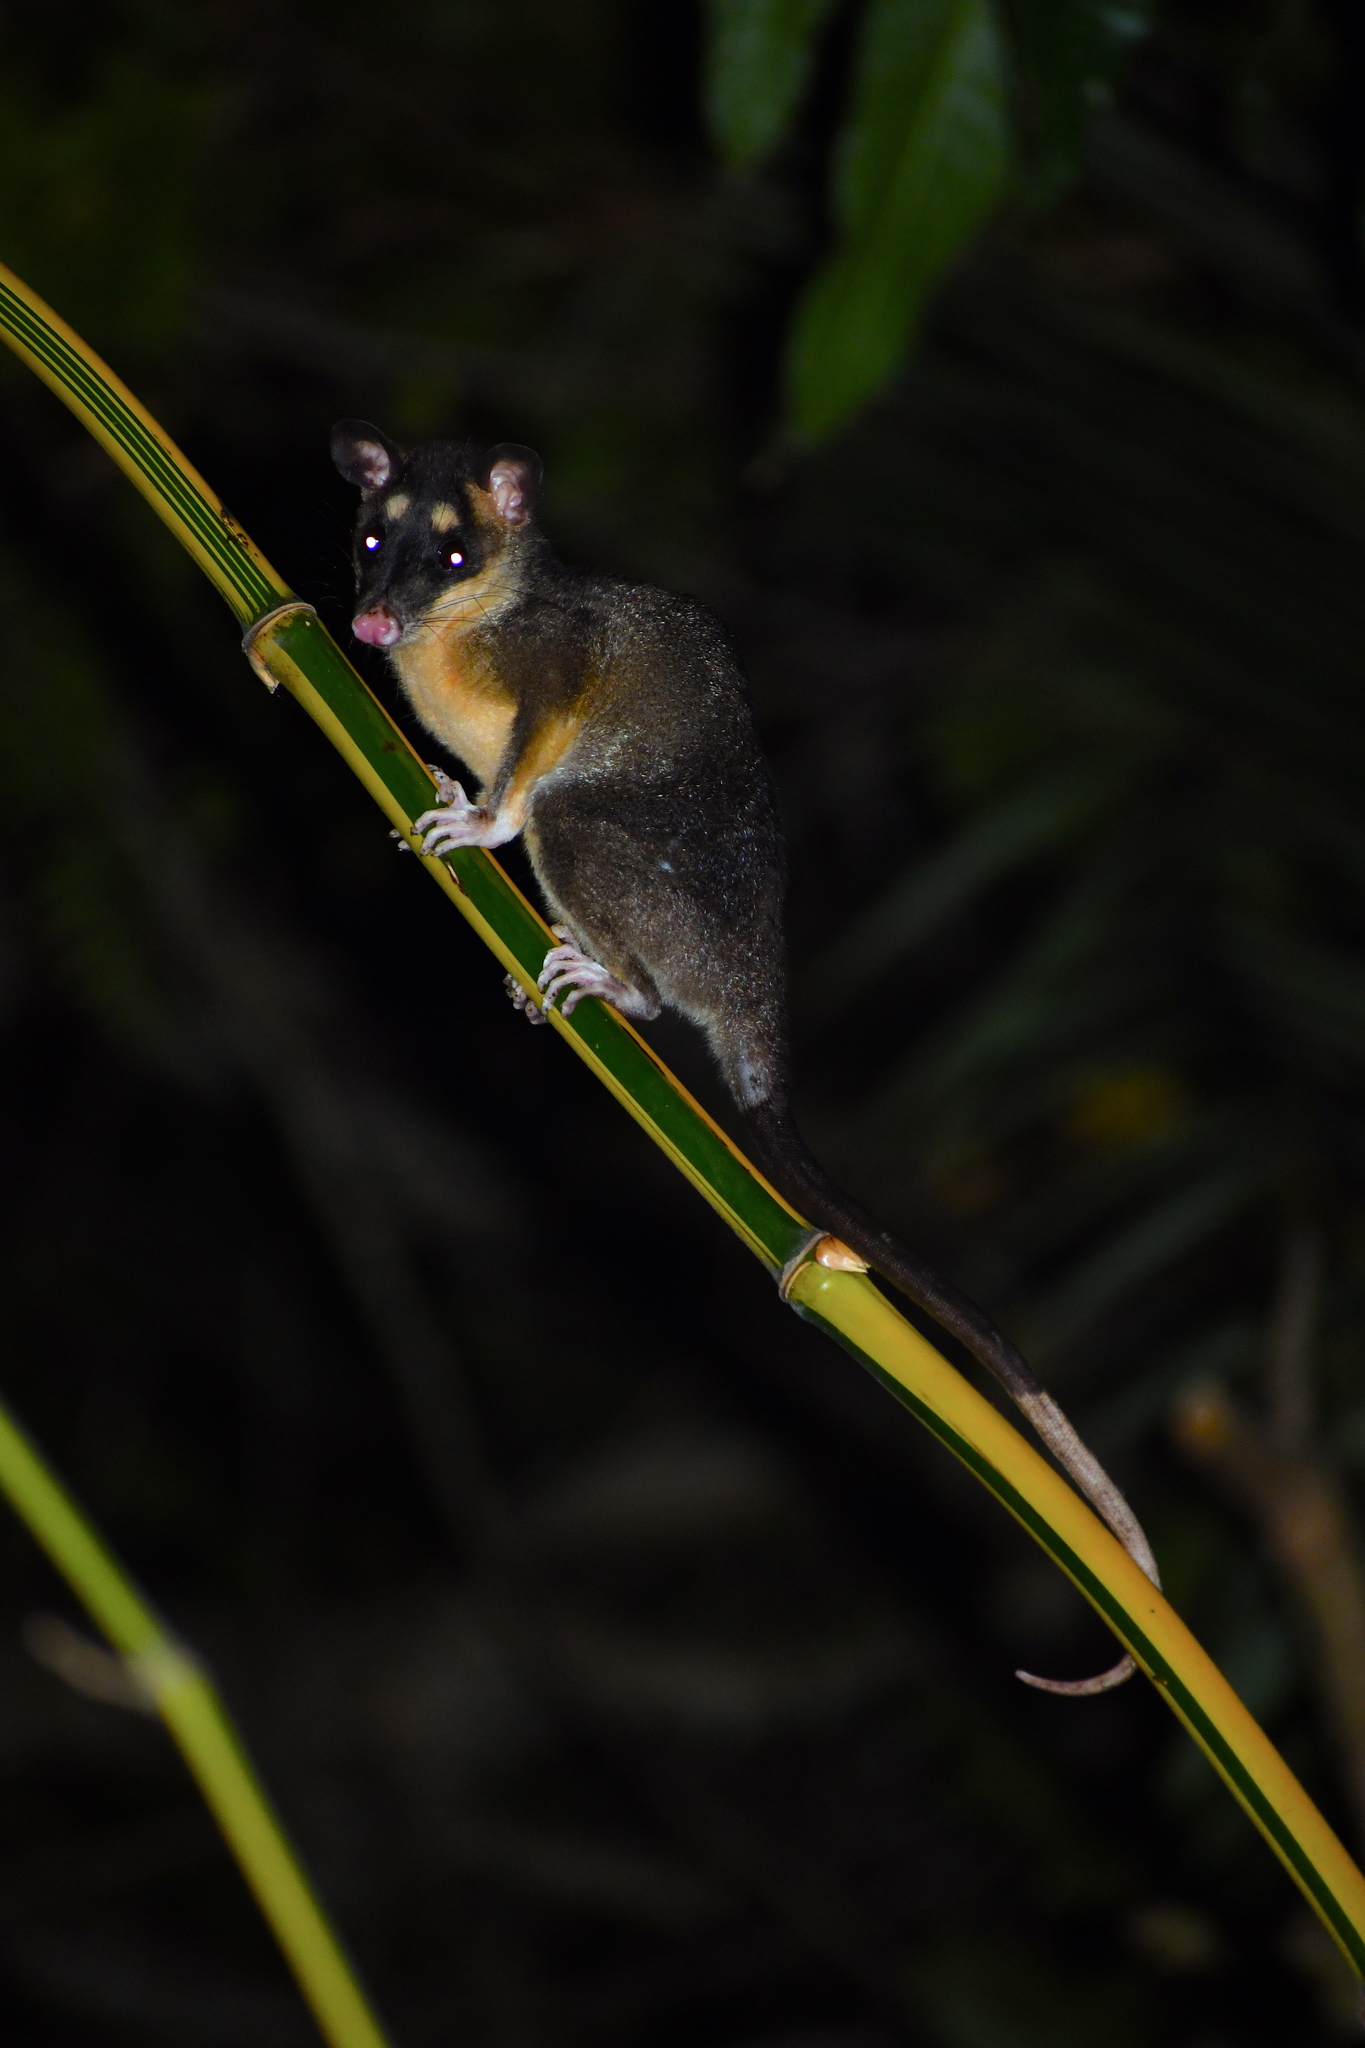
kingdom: Animalia
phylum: Chordata
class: Mammalia
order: Didelphimorphia
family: Didelphidae
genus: Philander
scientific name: Philander
